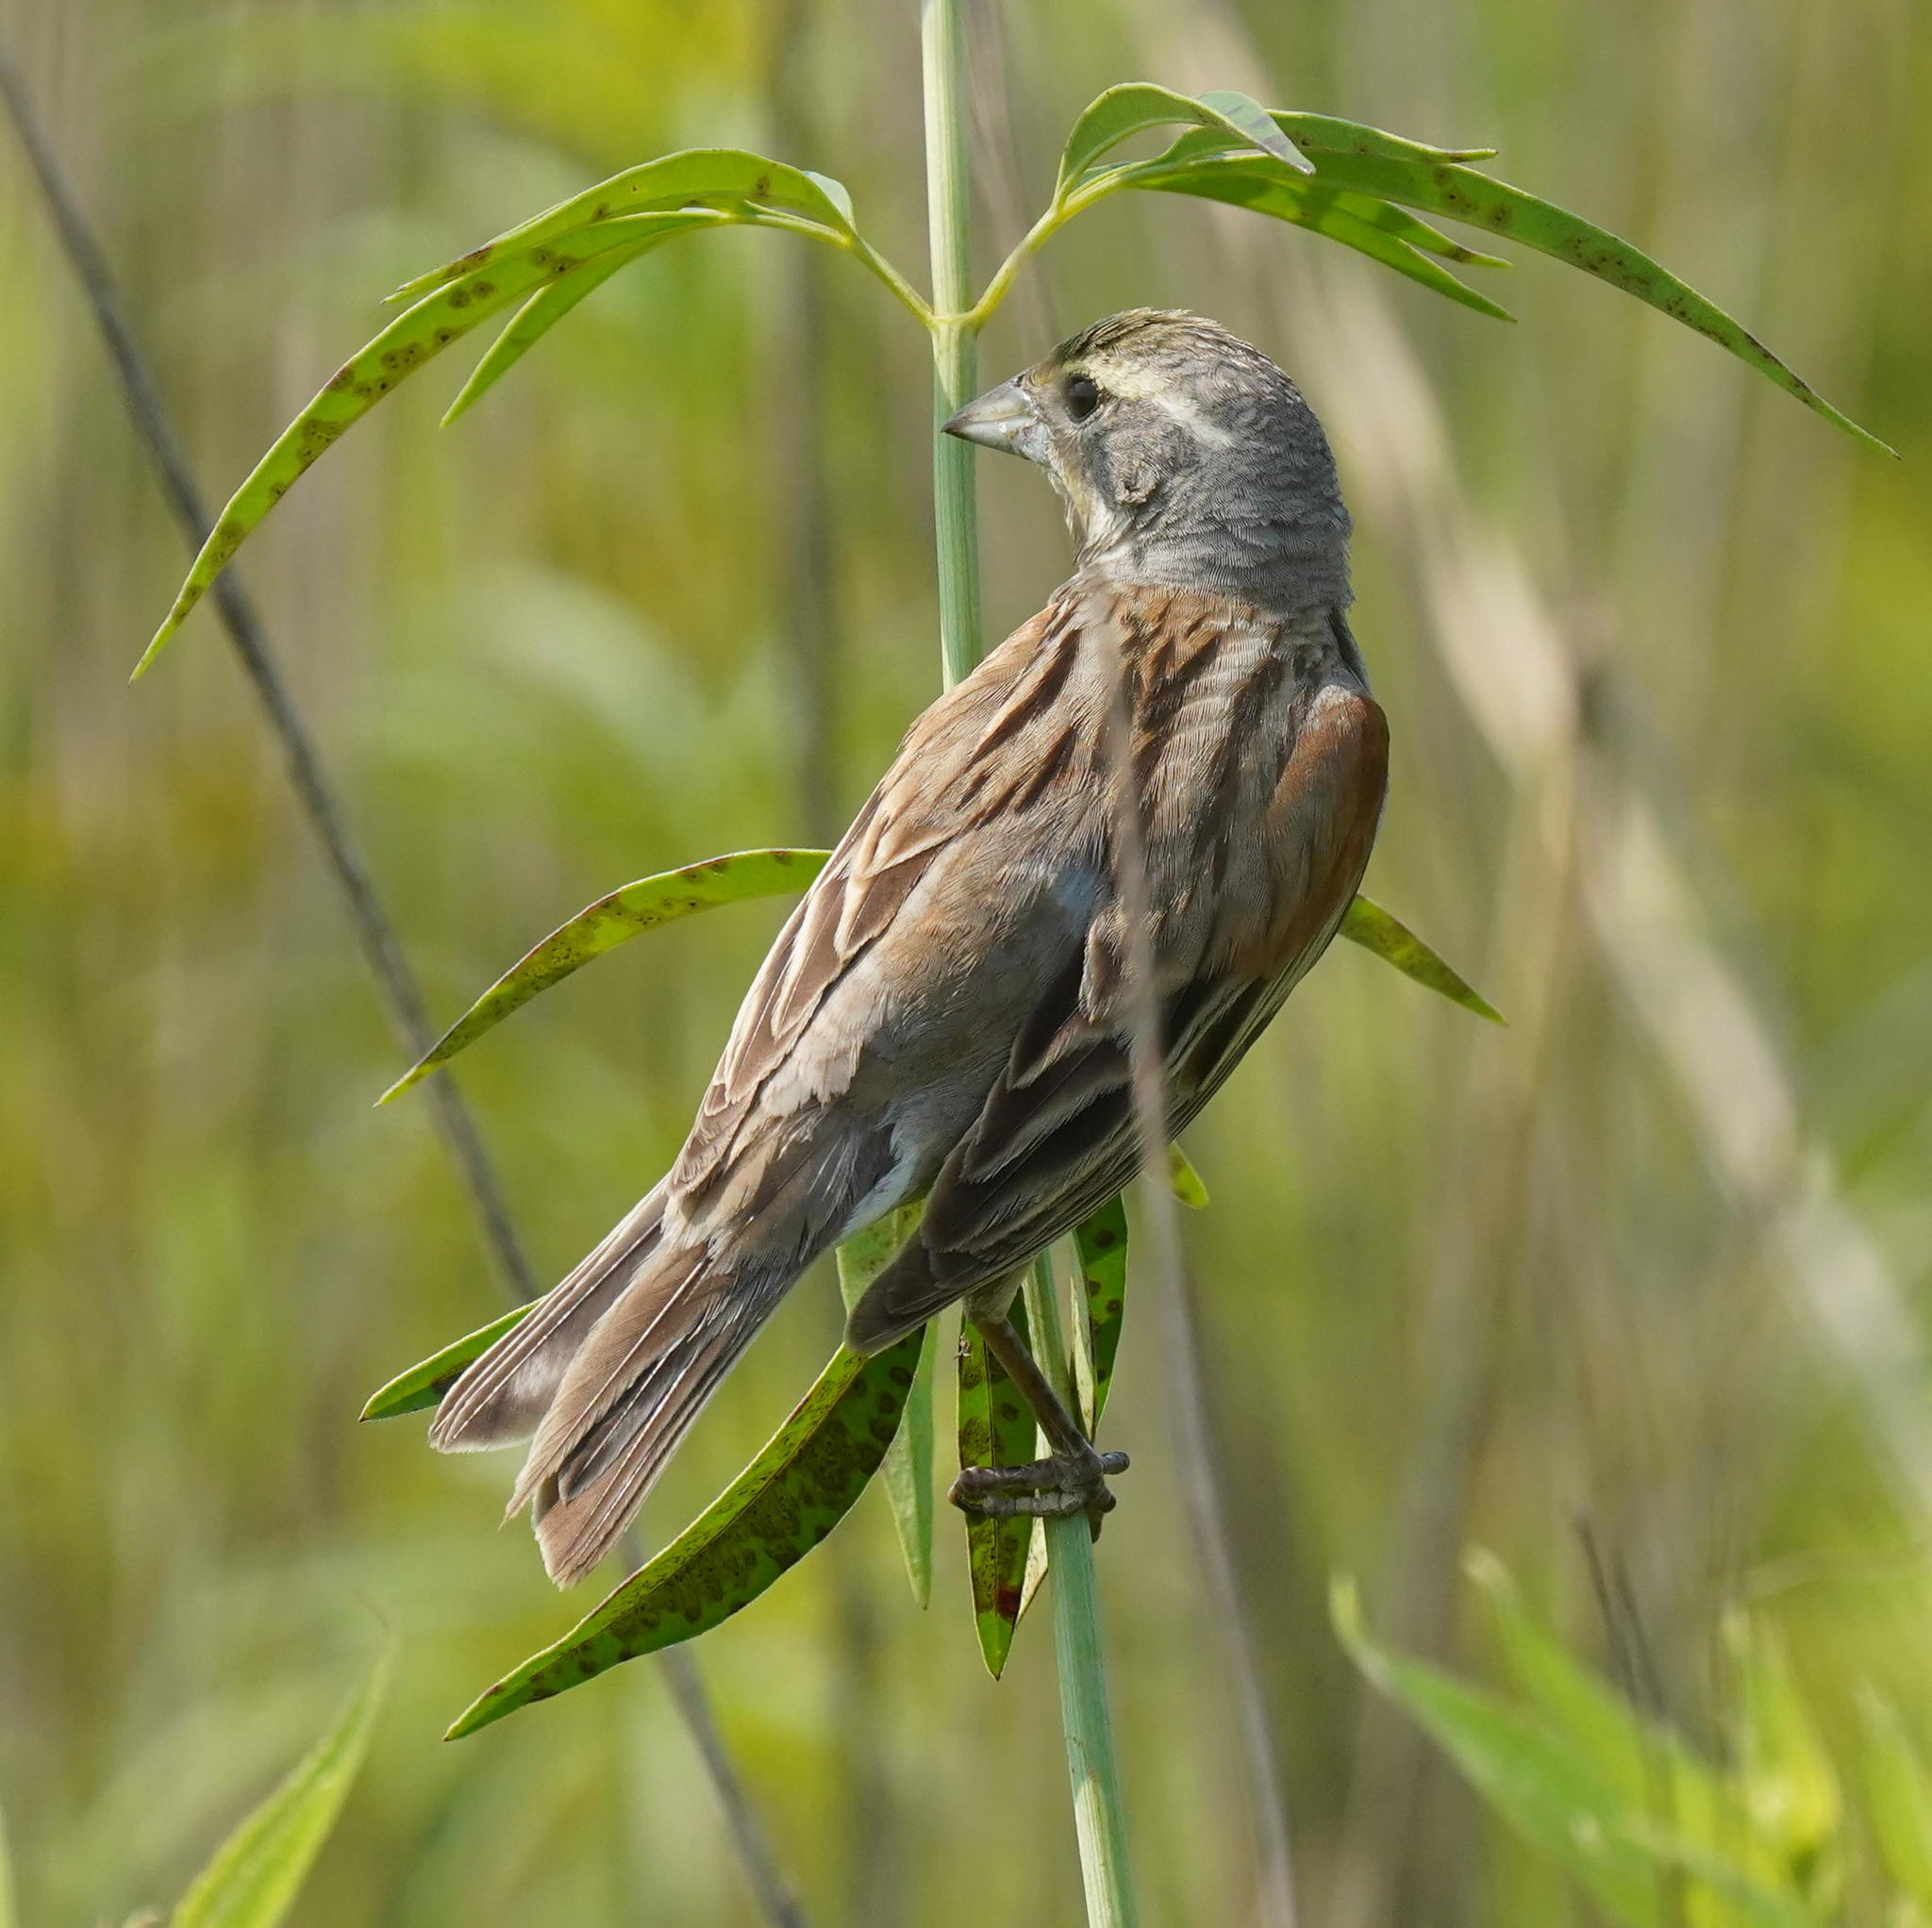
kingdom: Animalia
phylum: Chordata
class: Aves
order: Passeriformes
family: Cardinalidae
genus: Spiza
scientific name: Spiza americana
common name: Dickcissel
